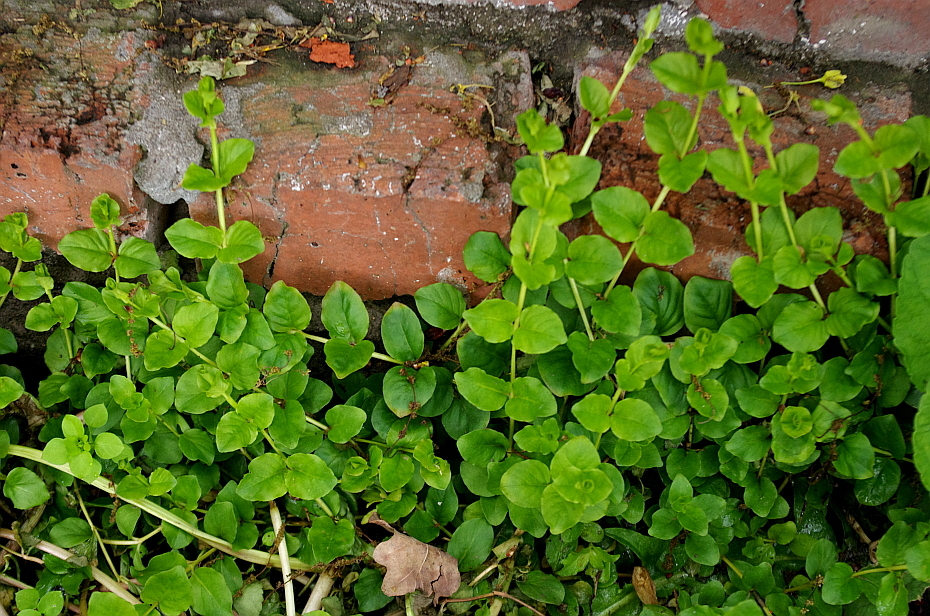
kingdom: Plantae
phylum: Tracheophyta
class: Magnoliopsida
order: Ericales
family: Primulaceae
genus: Lysimachia
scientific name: Lysimachia nummularia
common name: Moneywort
